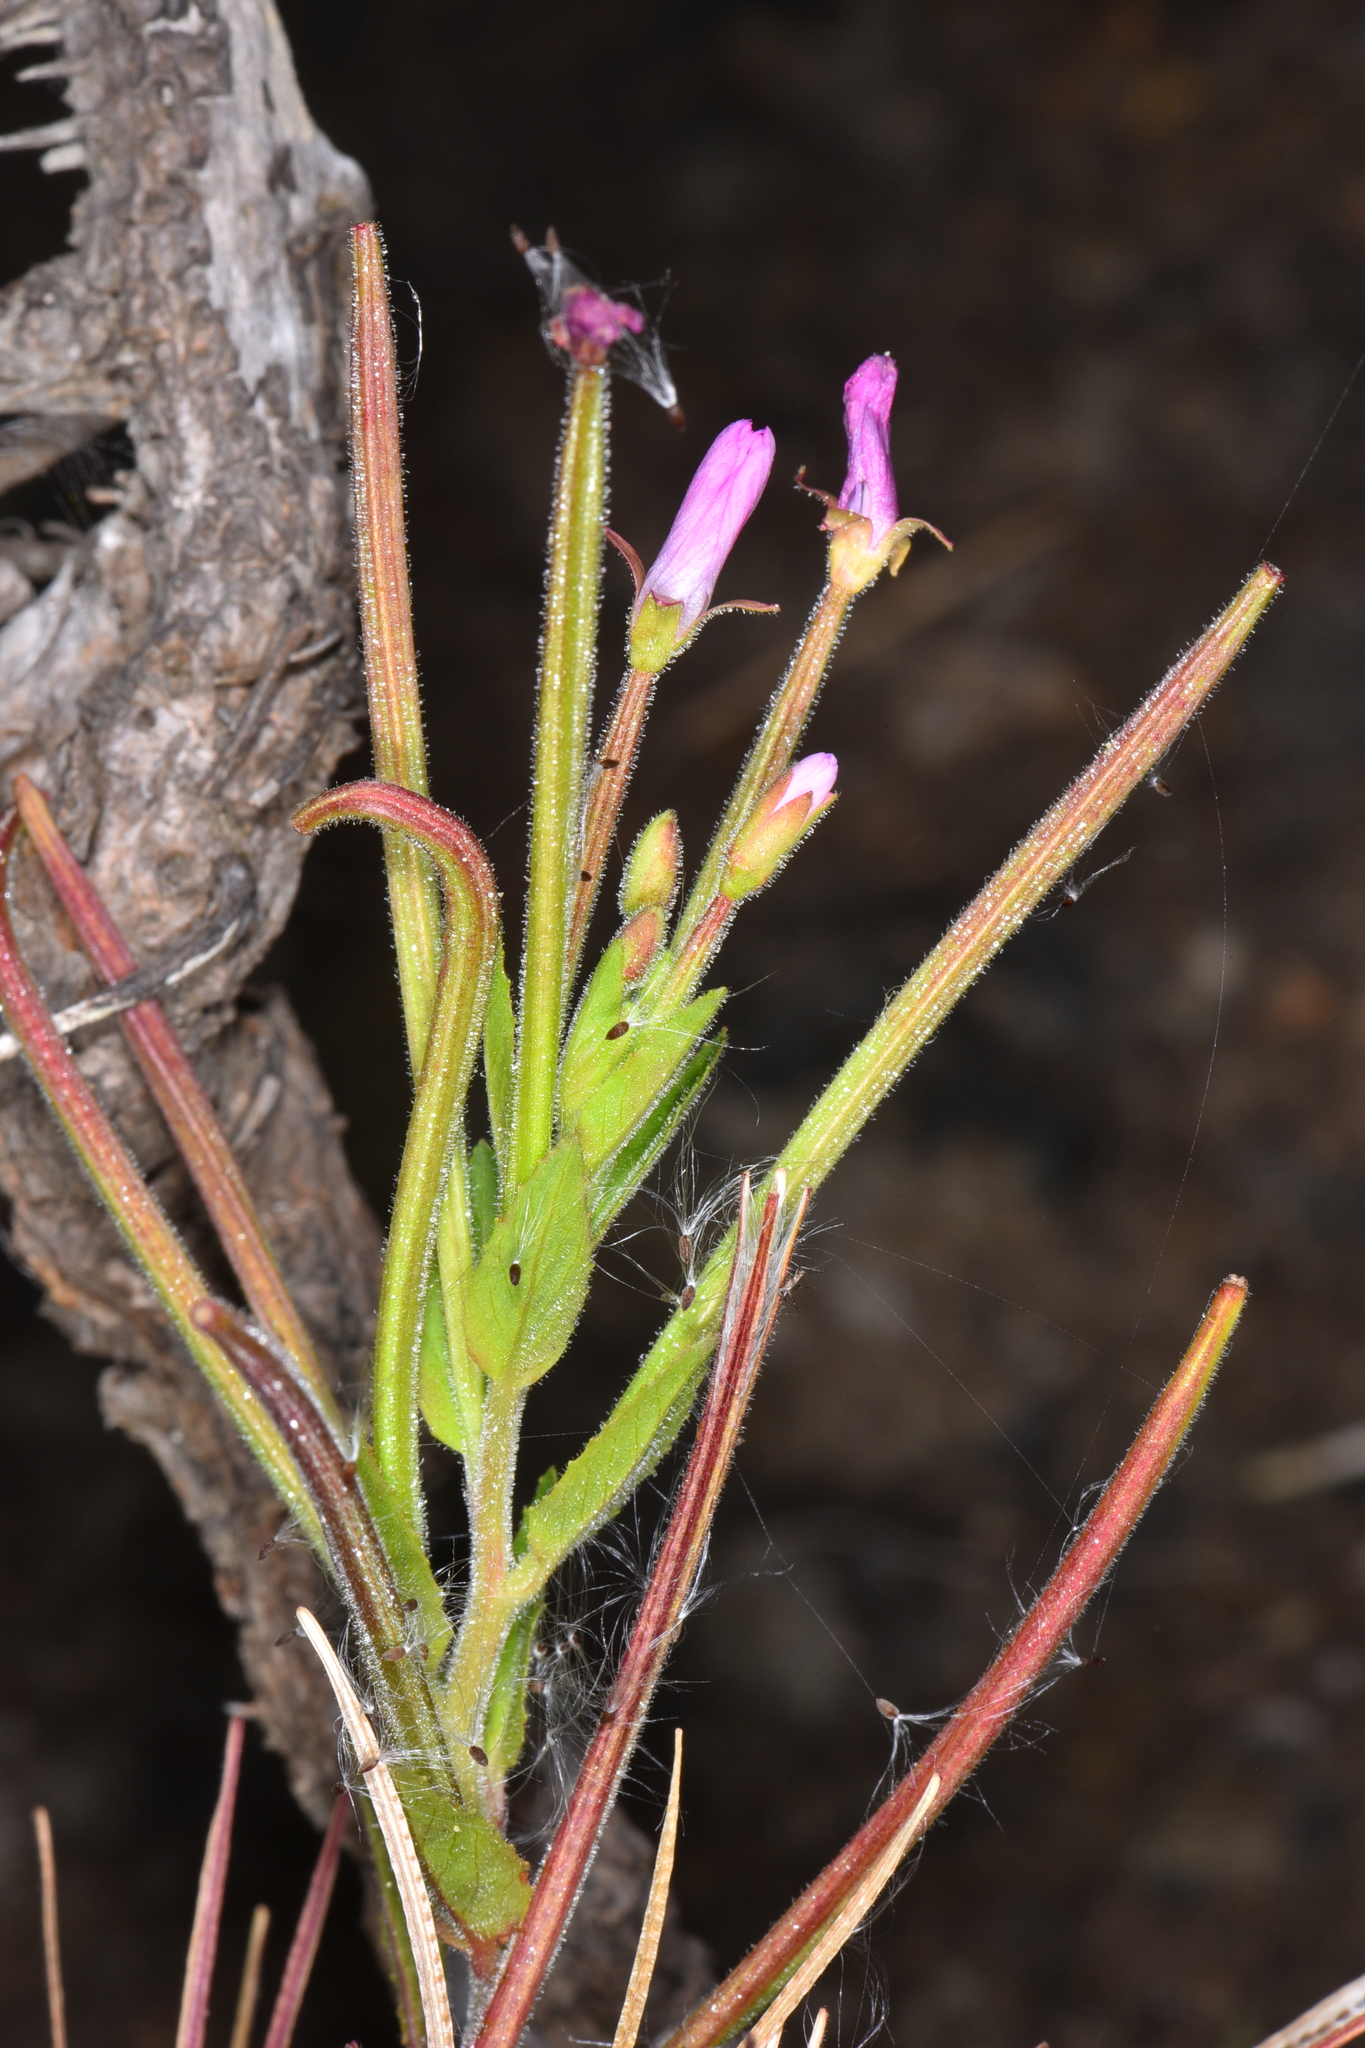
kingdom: Plantae
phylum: Tracheophyta
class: Magnoliopsida
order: Myrtales
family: Onagraceae
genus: Epilobium
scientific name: Epilobium ciliatum
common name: American willowherb
